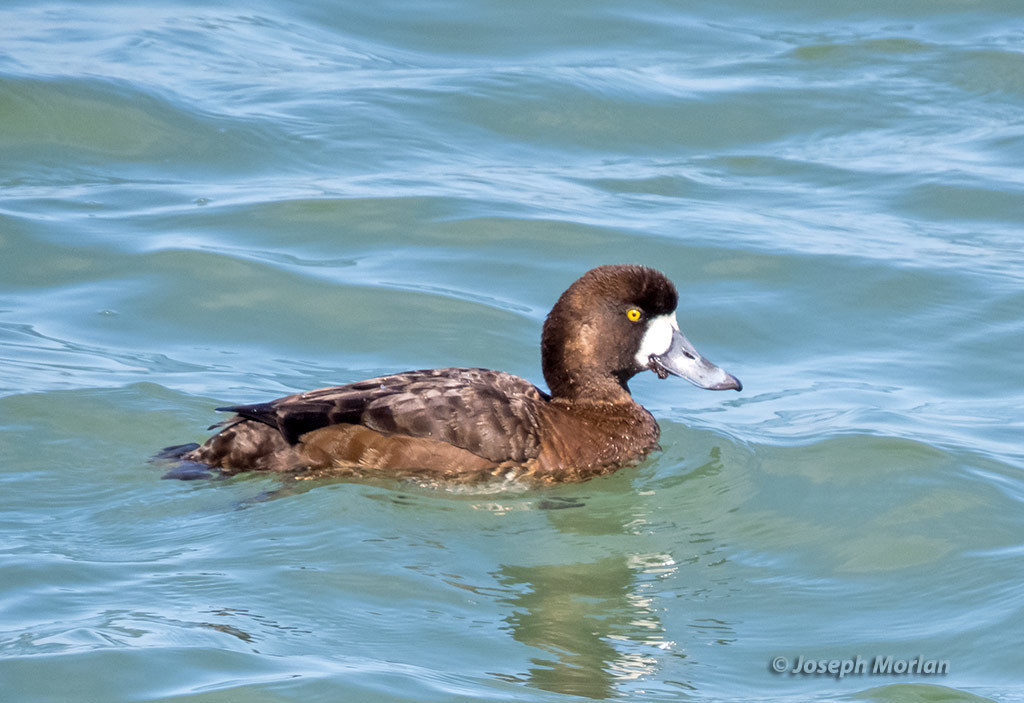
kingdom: Animalia
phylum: Chordata
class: Aves
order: Anseriformes
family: Anatidae
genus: Aythya
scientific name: Aythya marila
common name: Greater scaup
